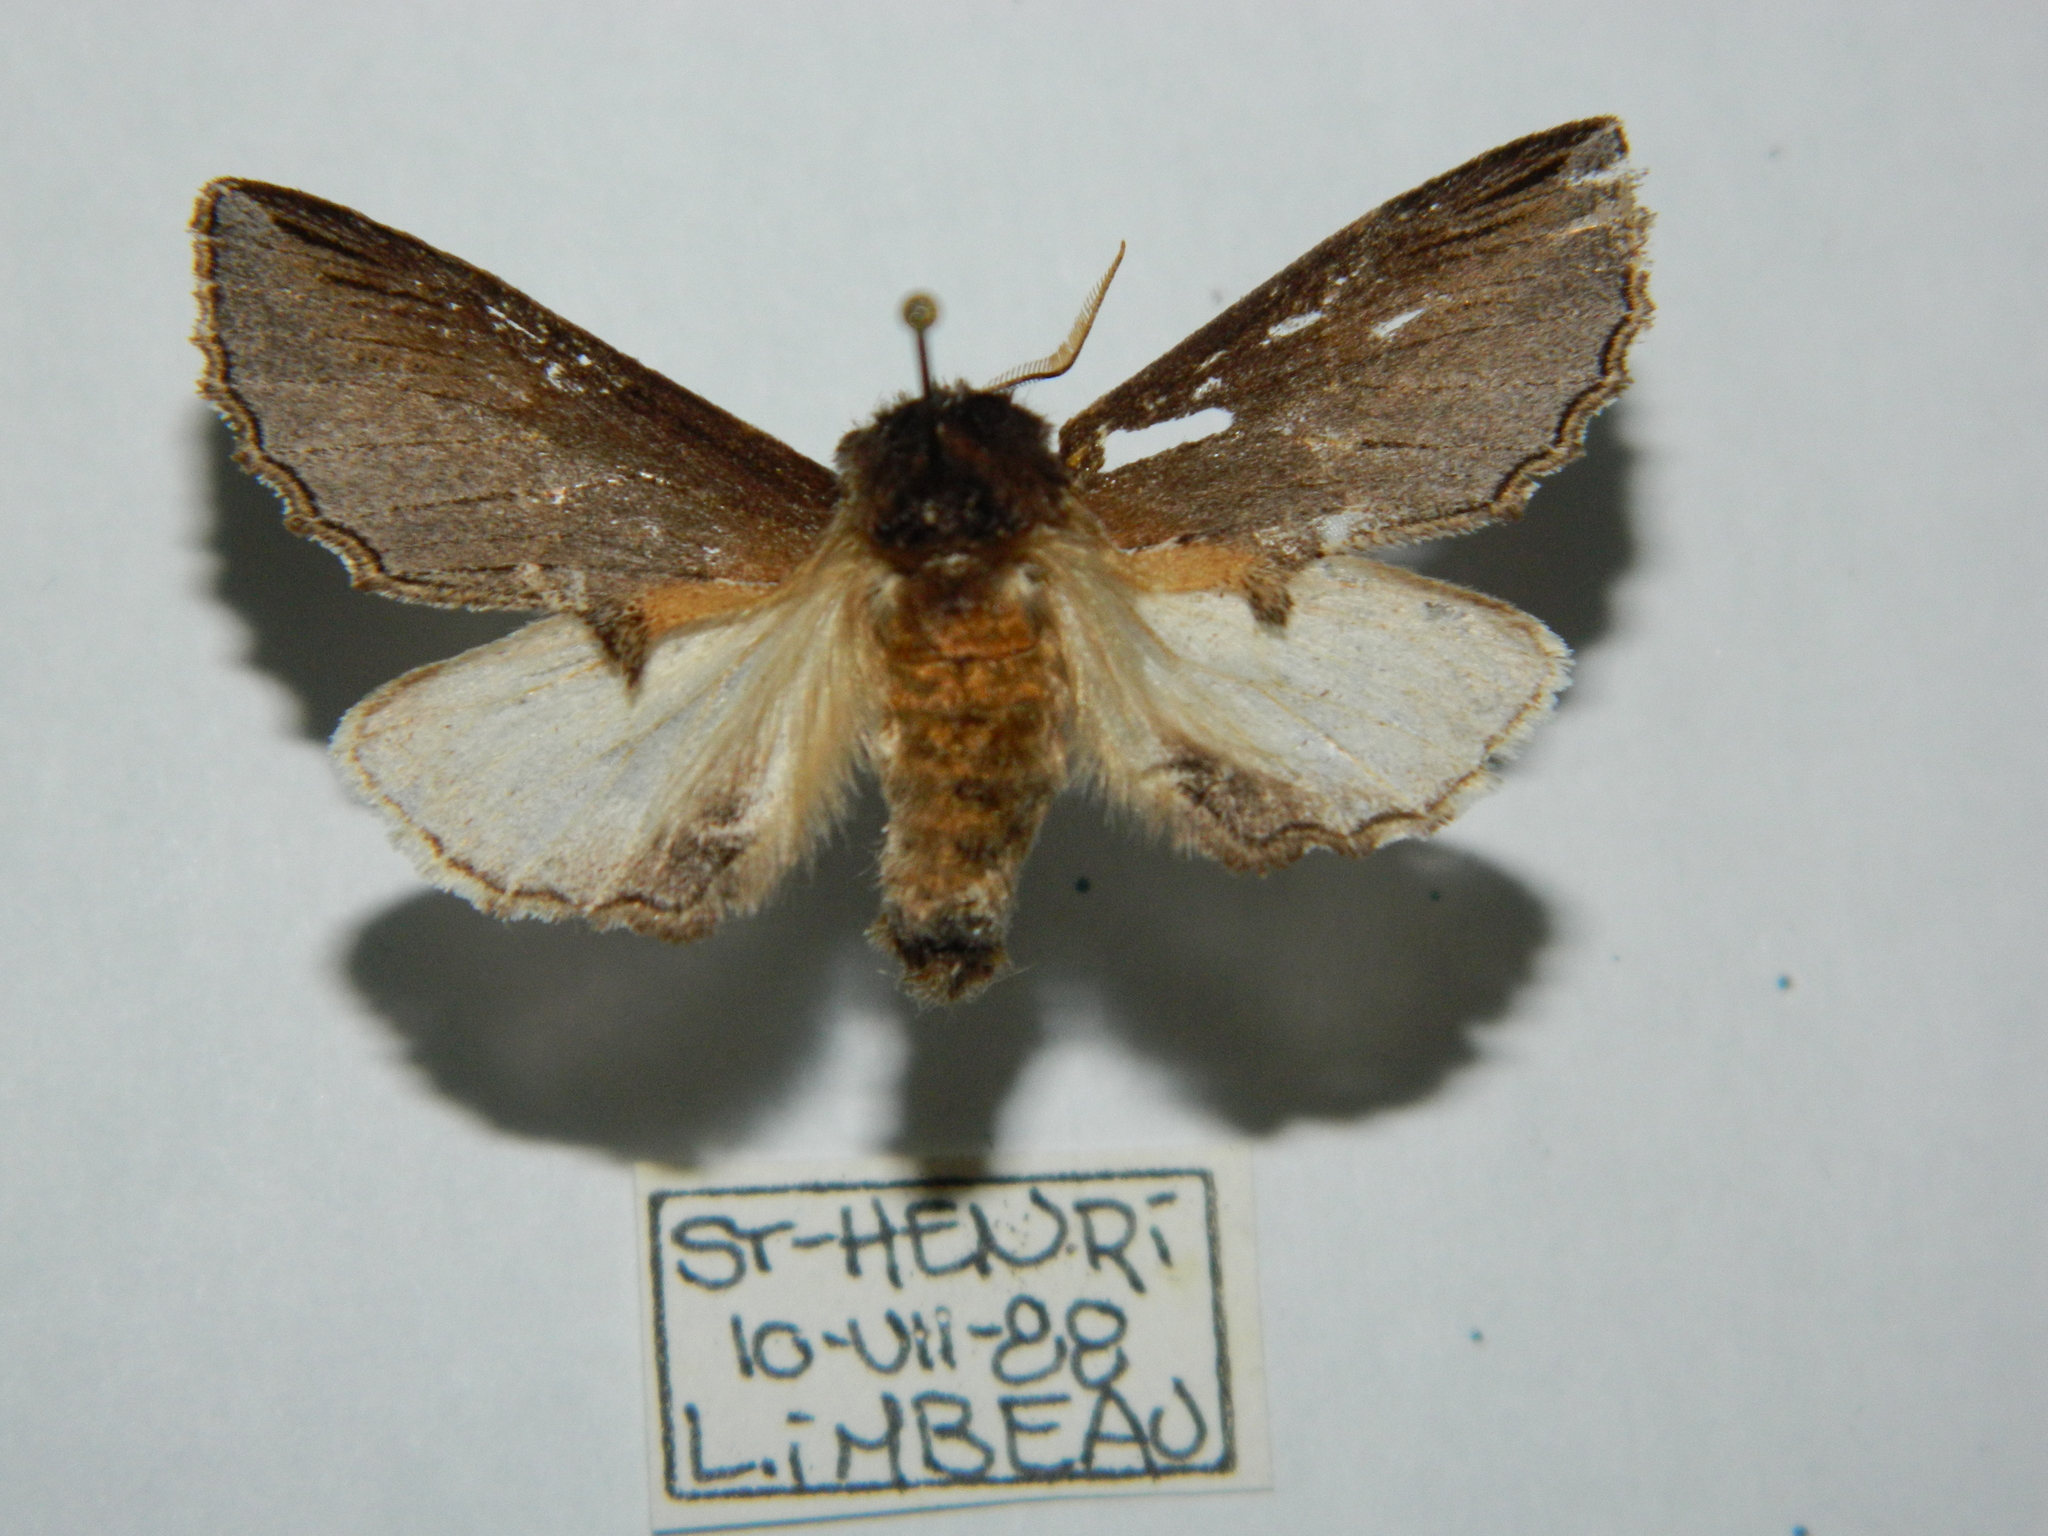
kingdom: Animalia
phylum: Arthropoda
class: Insecta
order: Lepidoptera
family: Notodontidae
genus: Pheosidea
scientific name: Pheosidea elegans
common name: Elegant prominent
